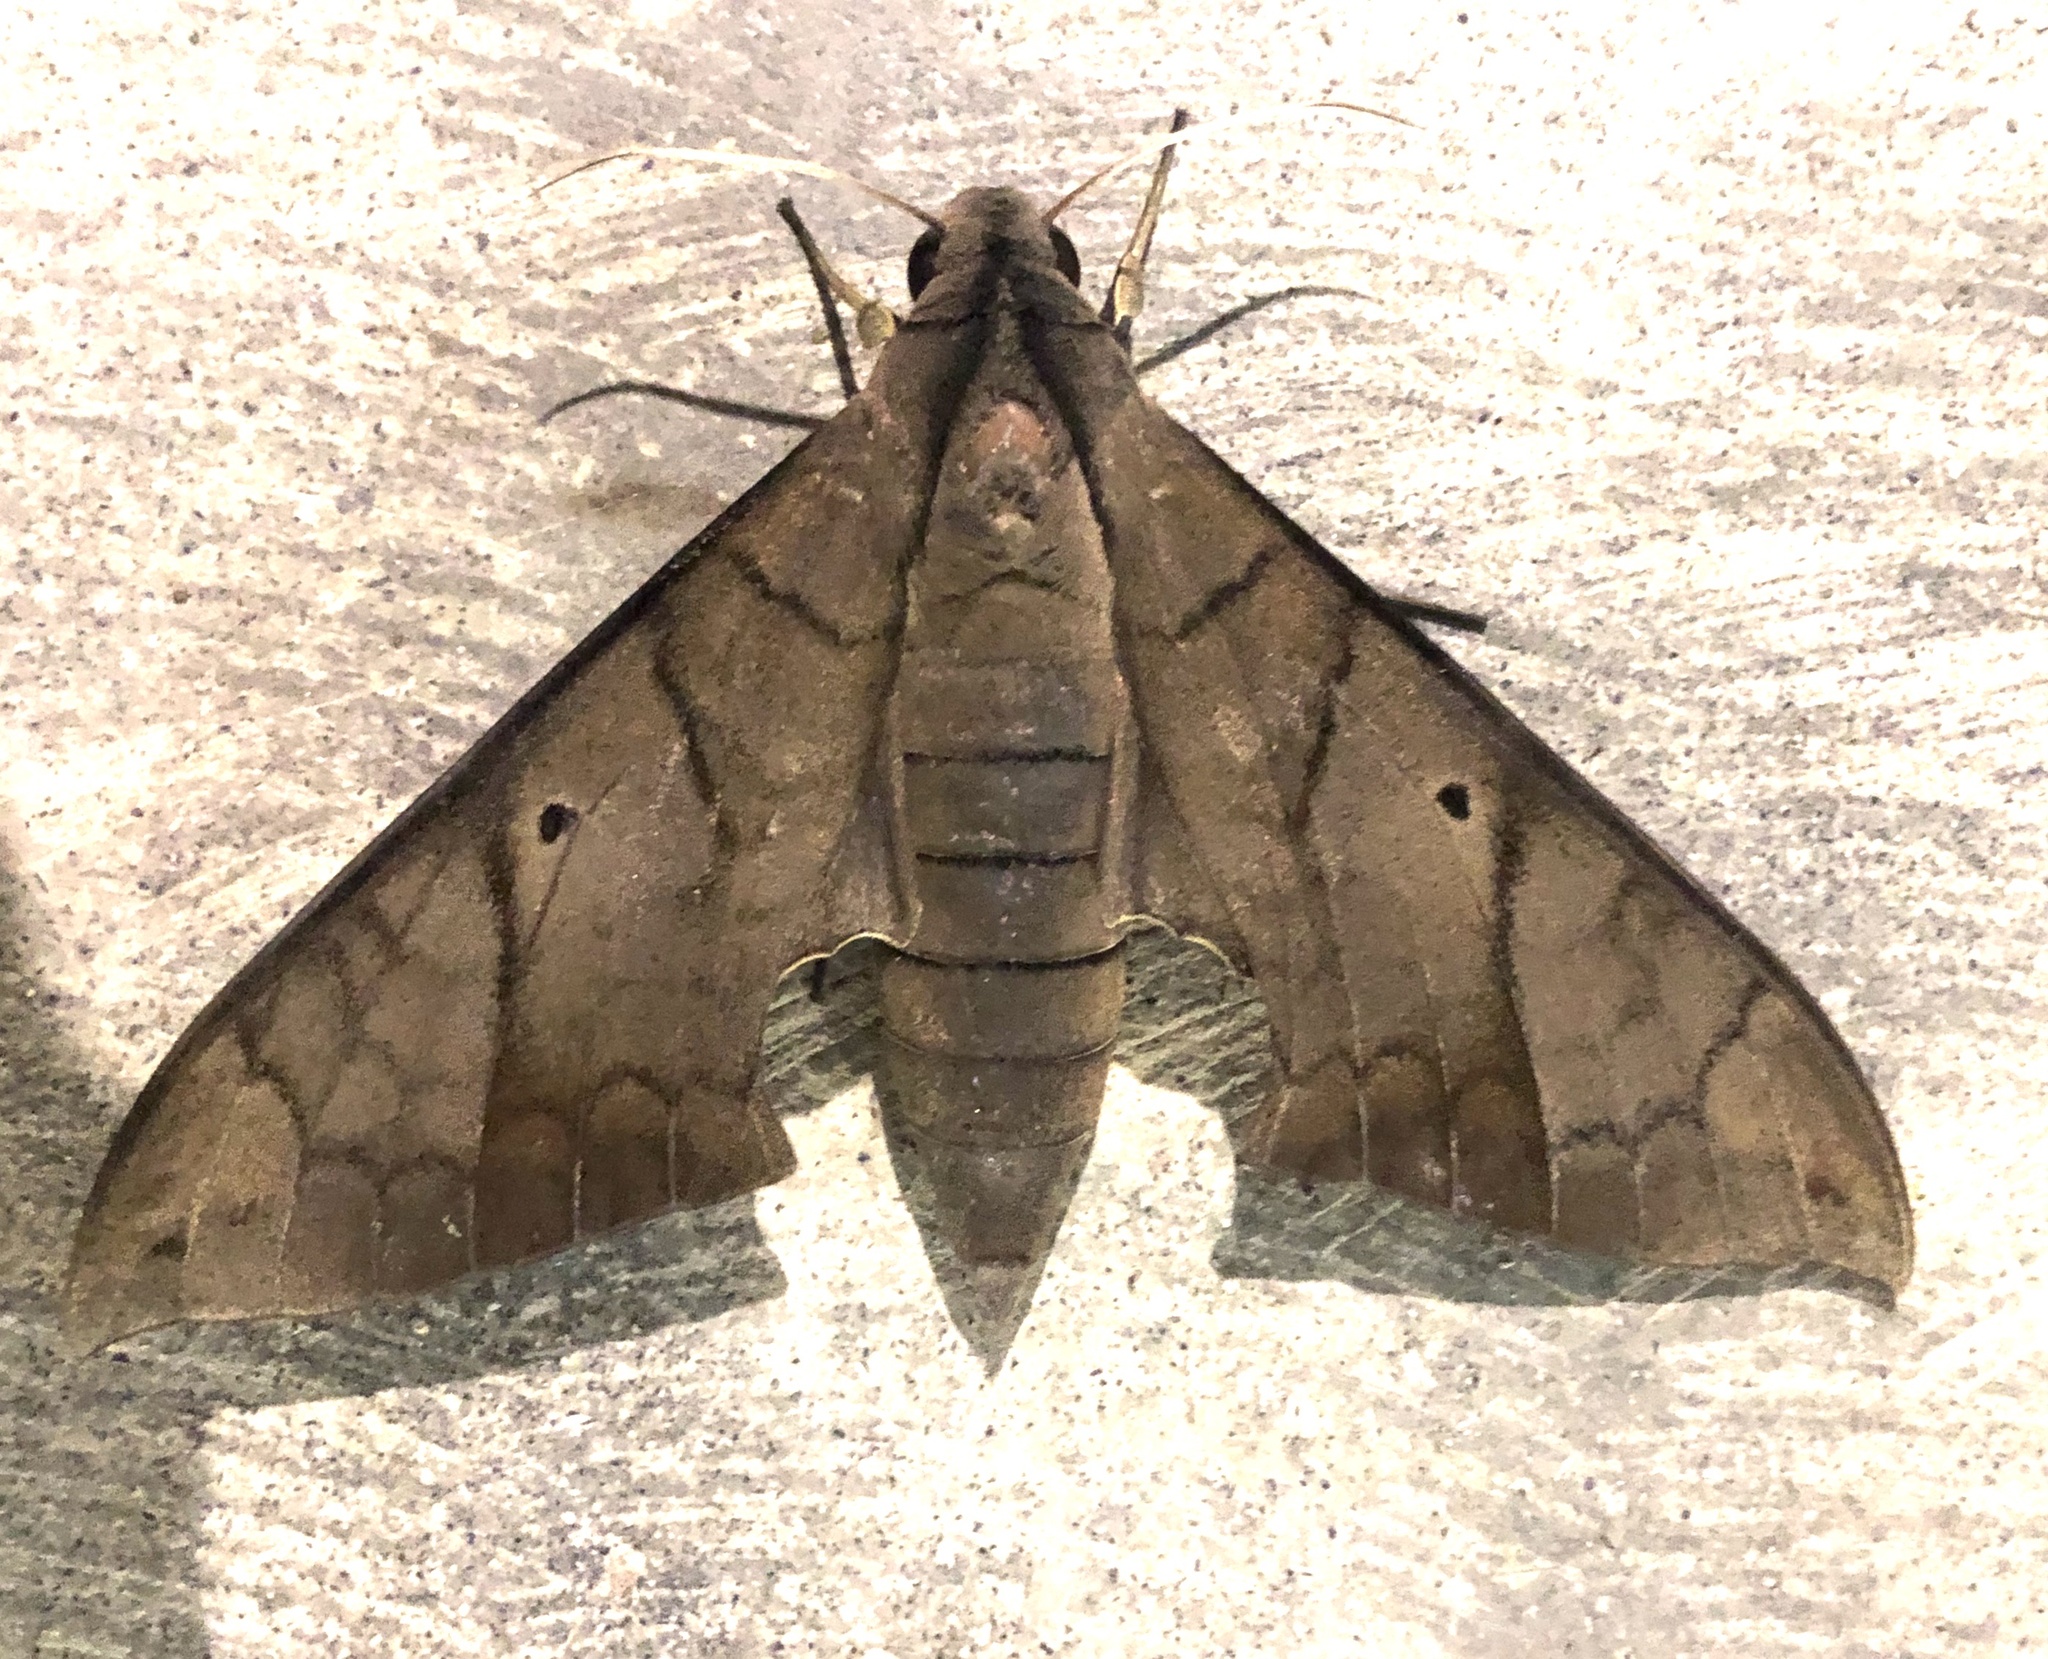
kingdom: Animalia
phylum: Arthropoda
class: Insecta
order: Lepidoptera
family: Sphingidae
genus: Pachylia
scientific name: Pachylia darceta
